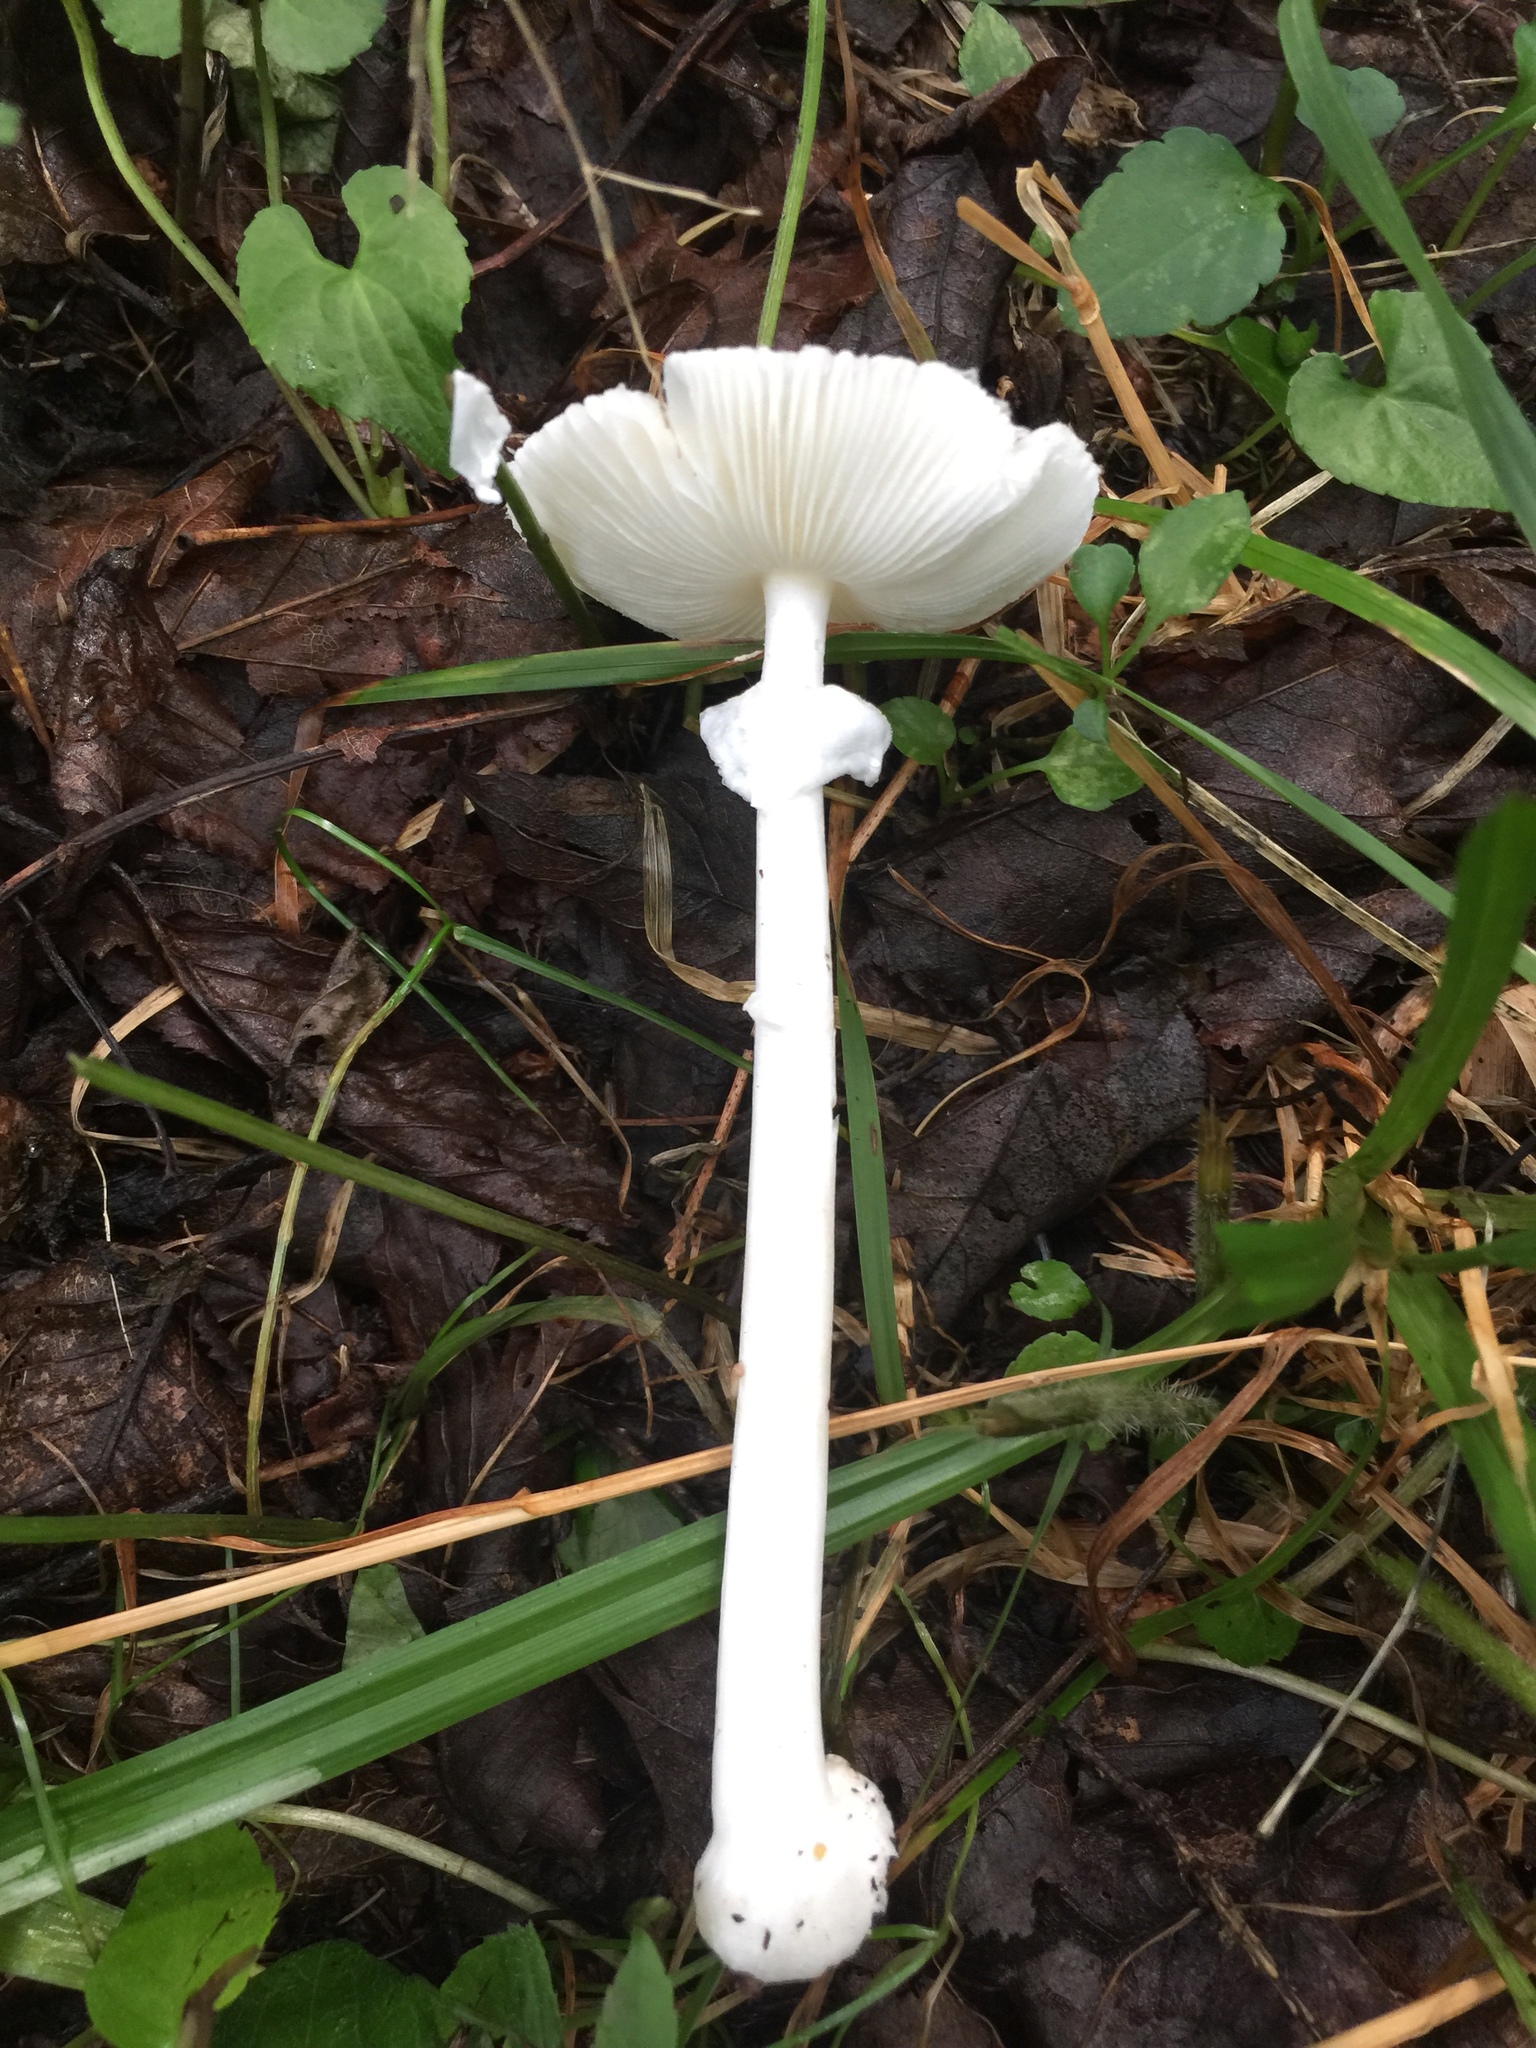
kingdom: Fungi
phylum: Basidiomycota
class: Agaricomycetes
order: Agaricales
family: Amanitaceae
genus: Amanita
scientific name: Amanita bisporigera
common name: Eastern north american destroying angel
